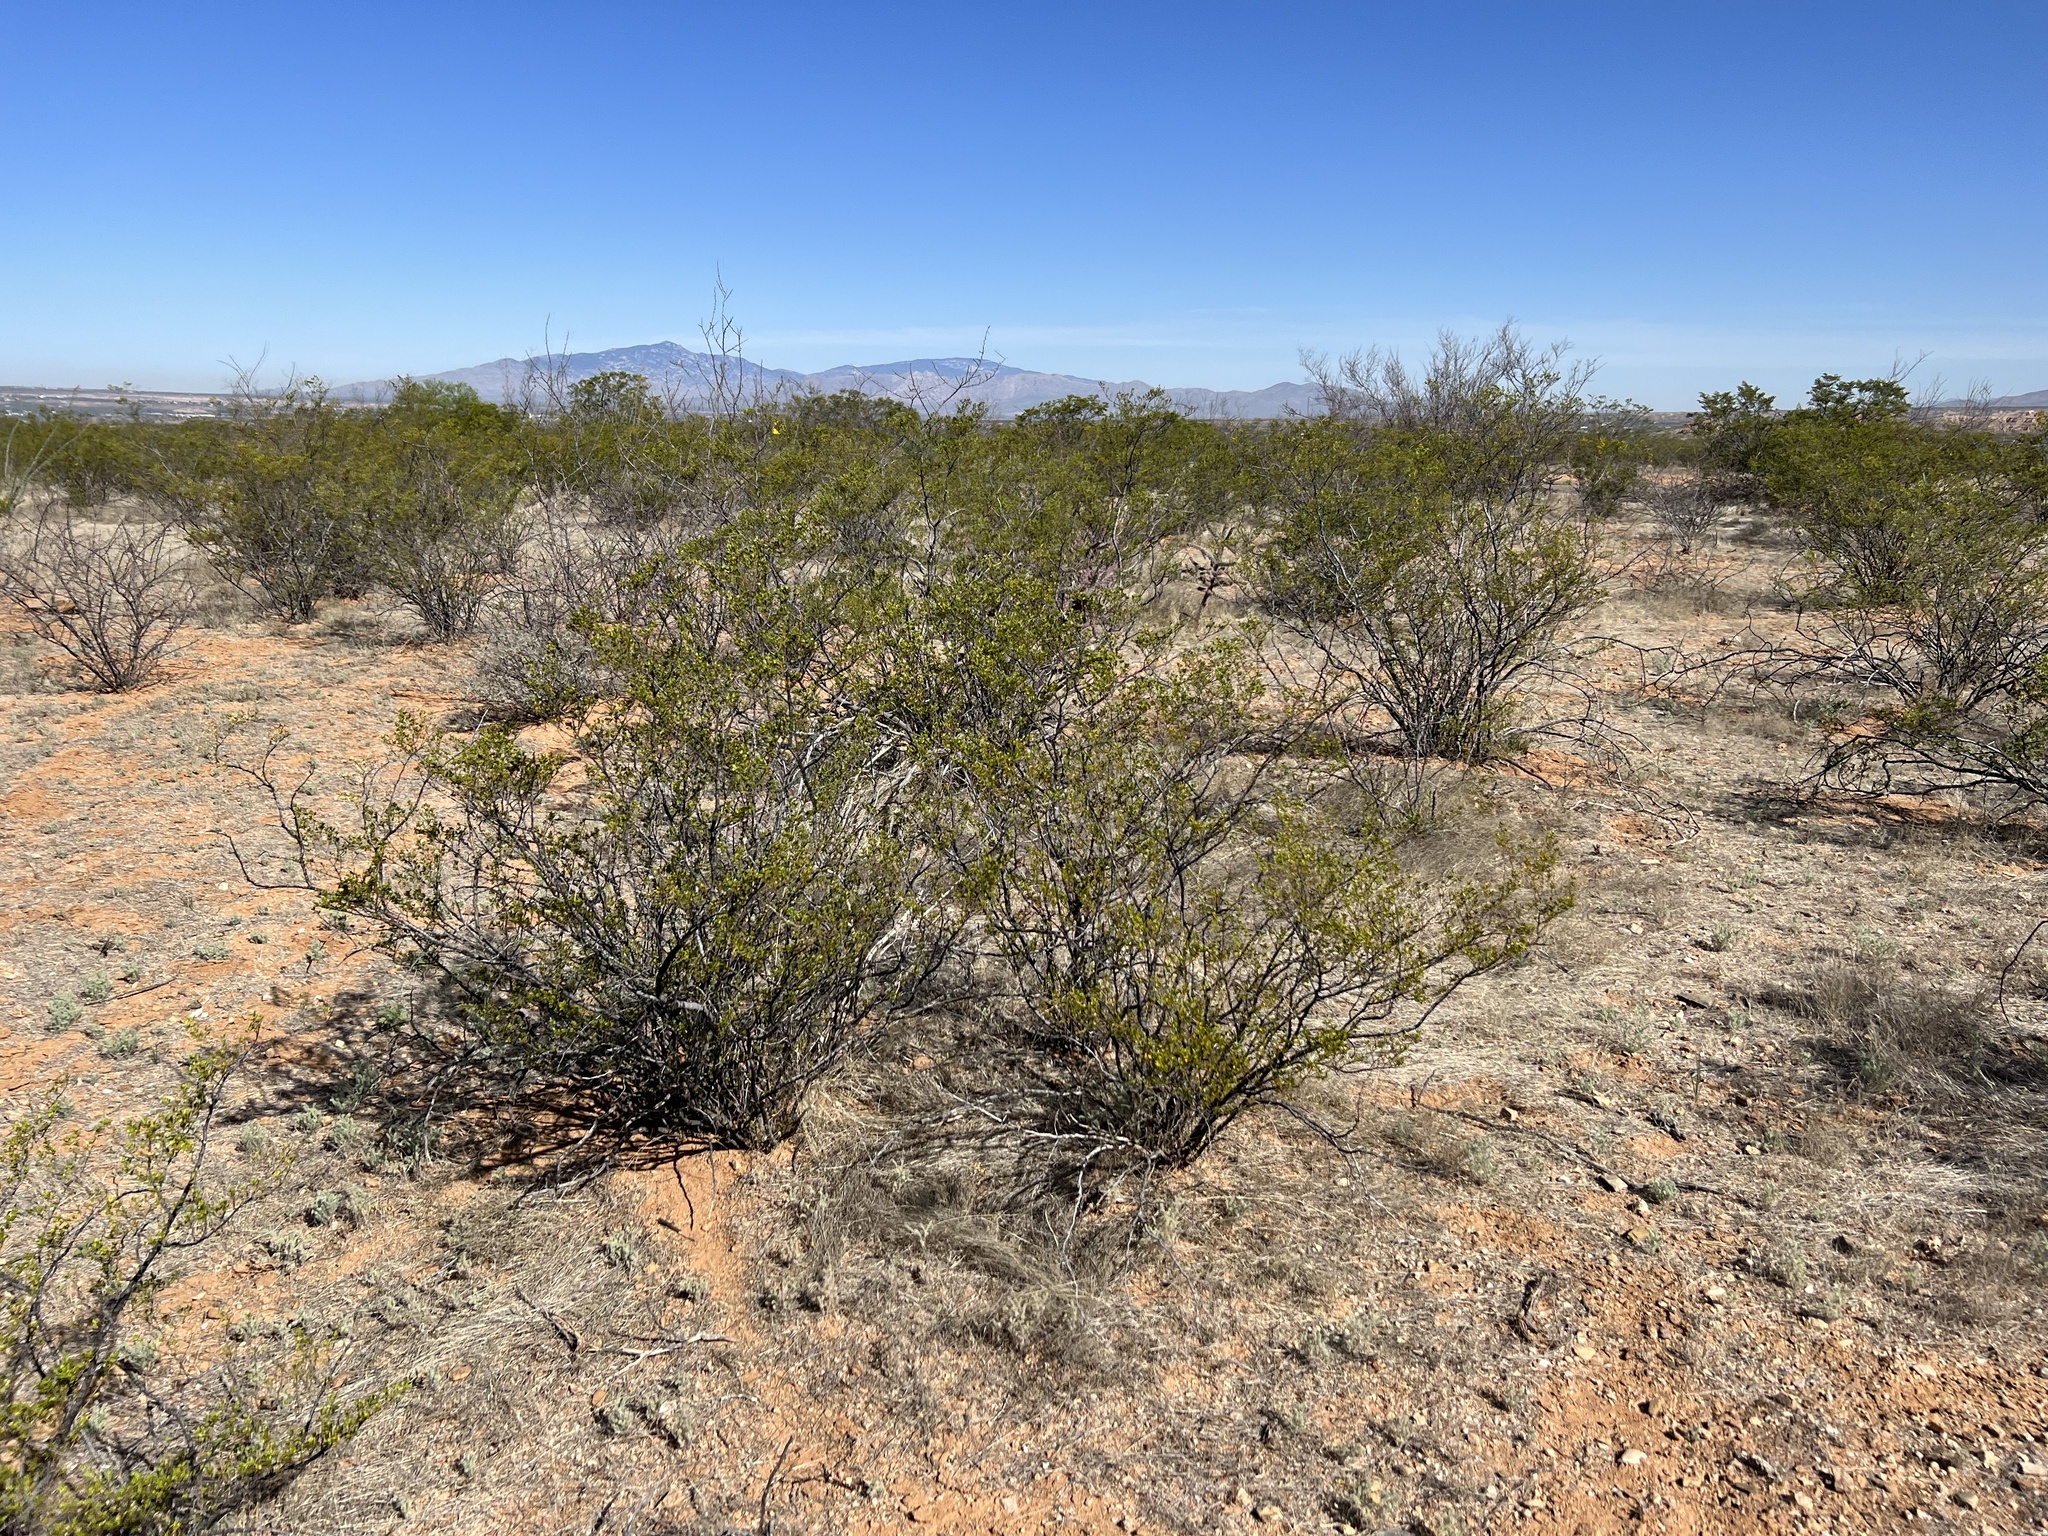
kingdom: Plantae
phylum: Tracheophyta
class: Magnoliopsida
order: Zygophyllales
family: Zygophyllaceae
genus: Larrea
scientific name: Larrea tridentata
